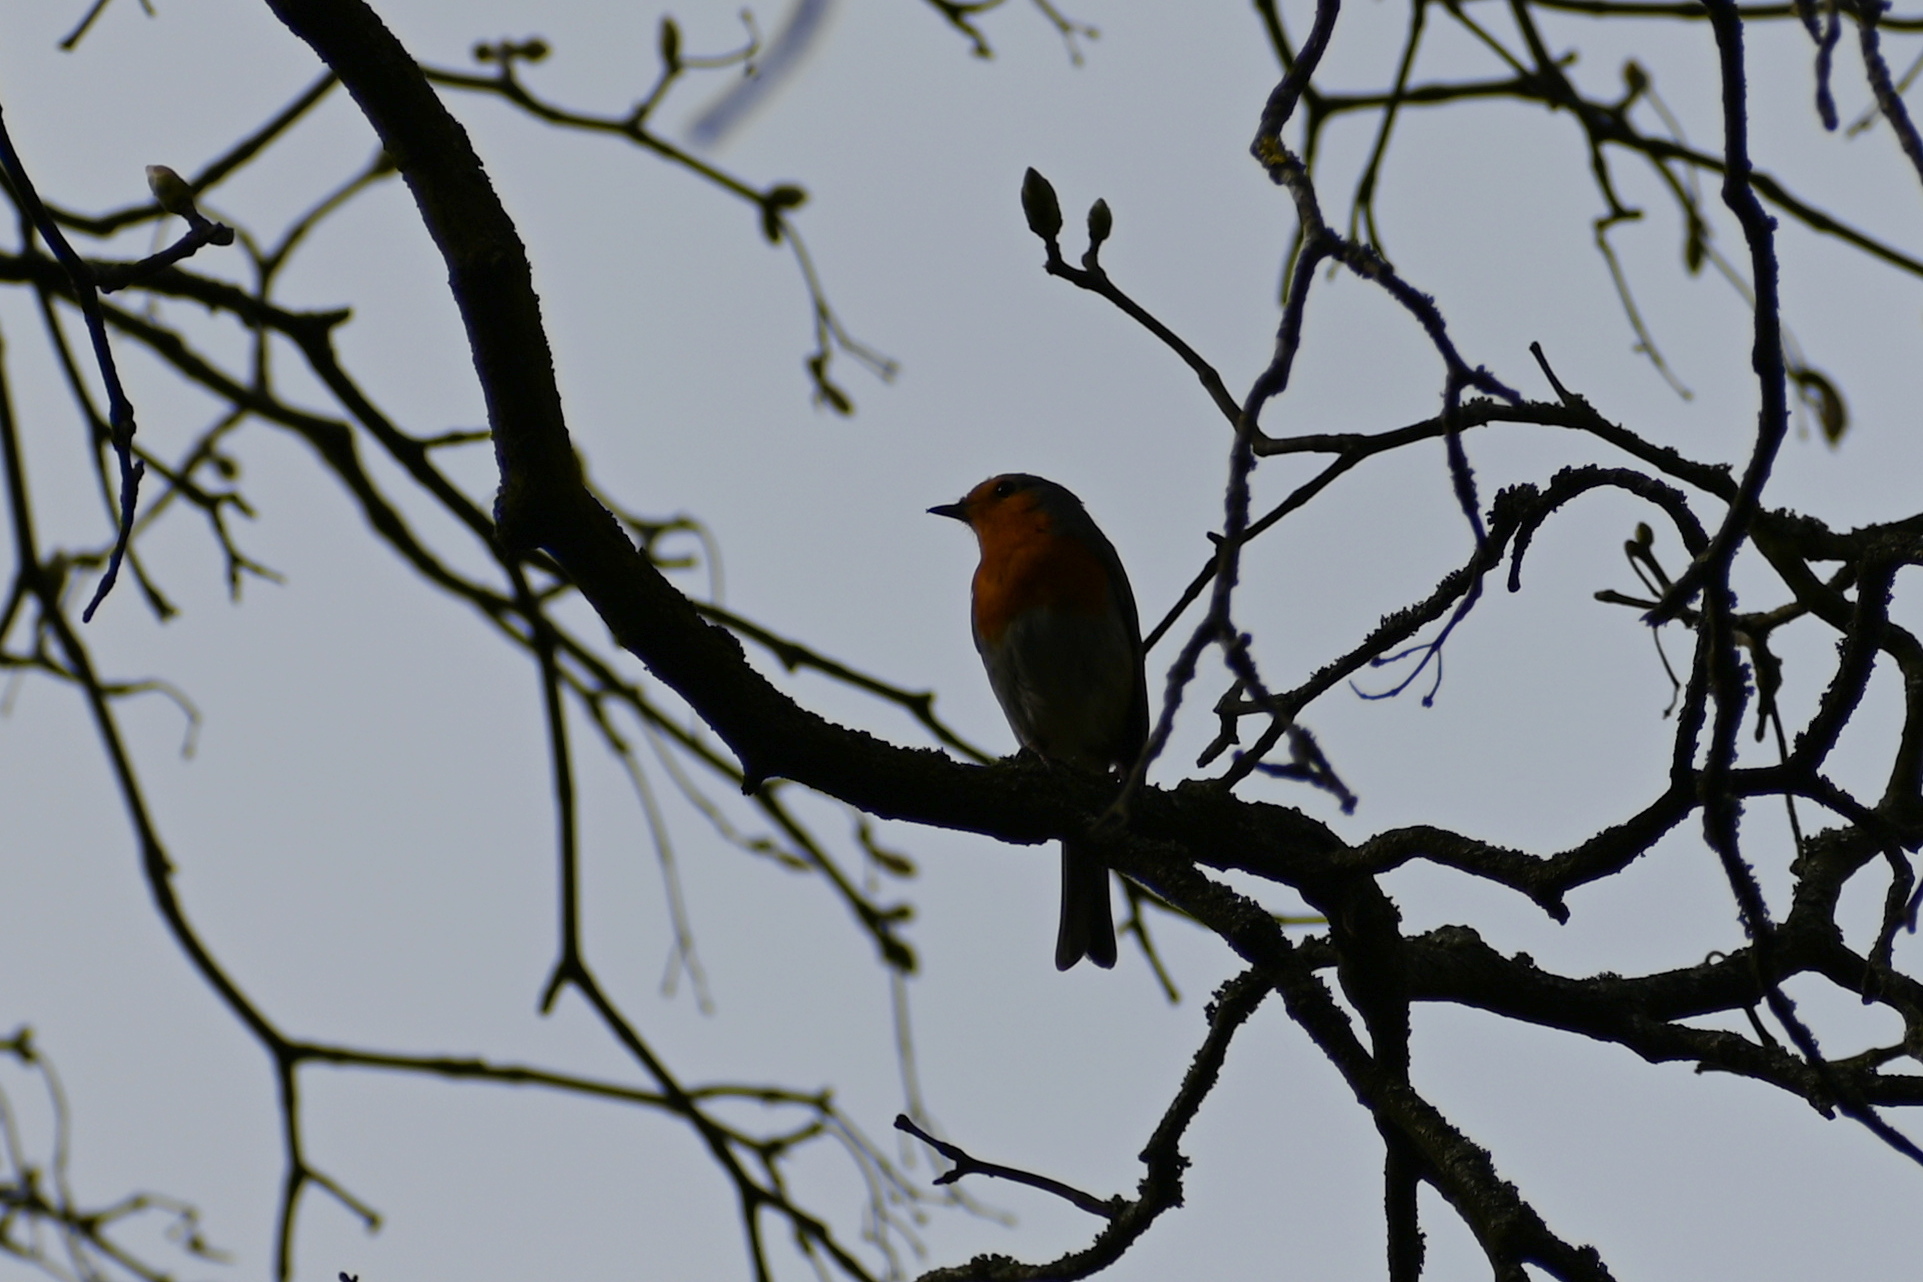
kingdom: Animalia
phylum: Chordata
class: Aves
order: Passeriformes
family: Muscicapidae
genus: Erithacus
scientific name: Erithacus rubecula
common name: European robin
